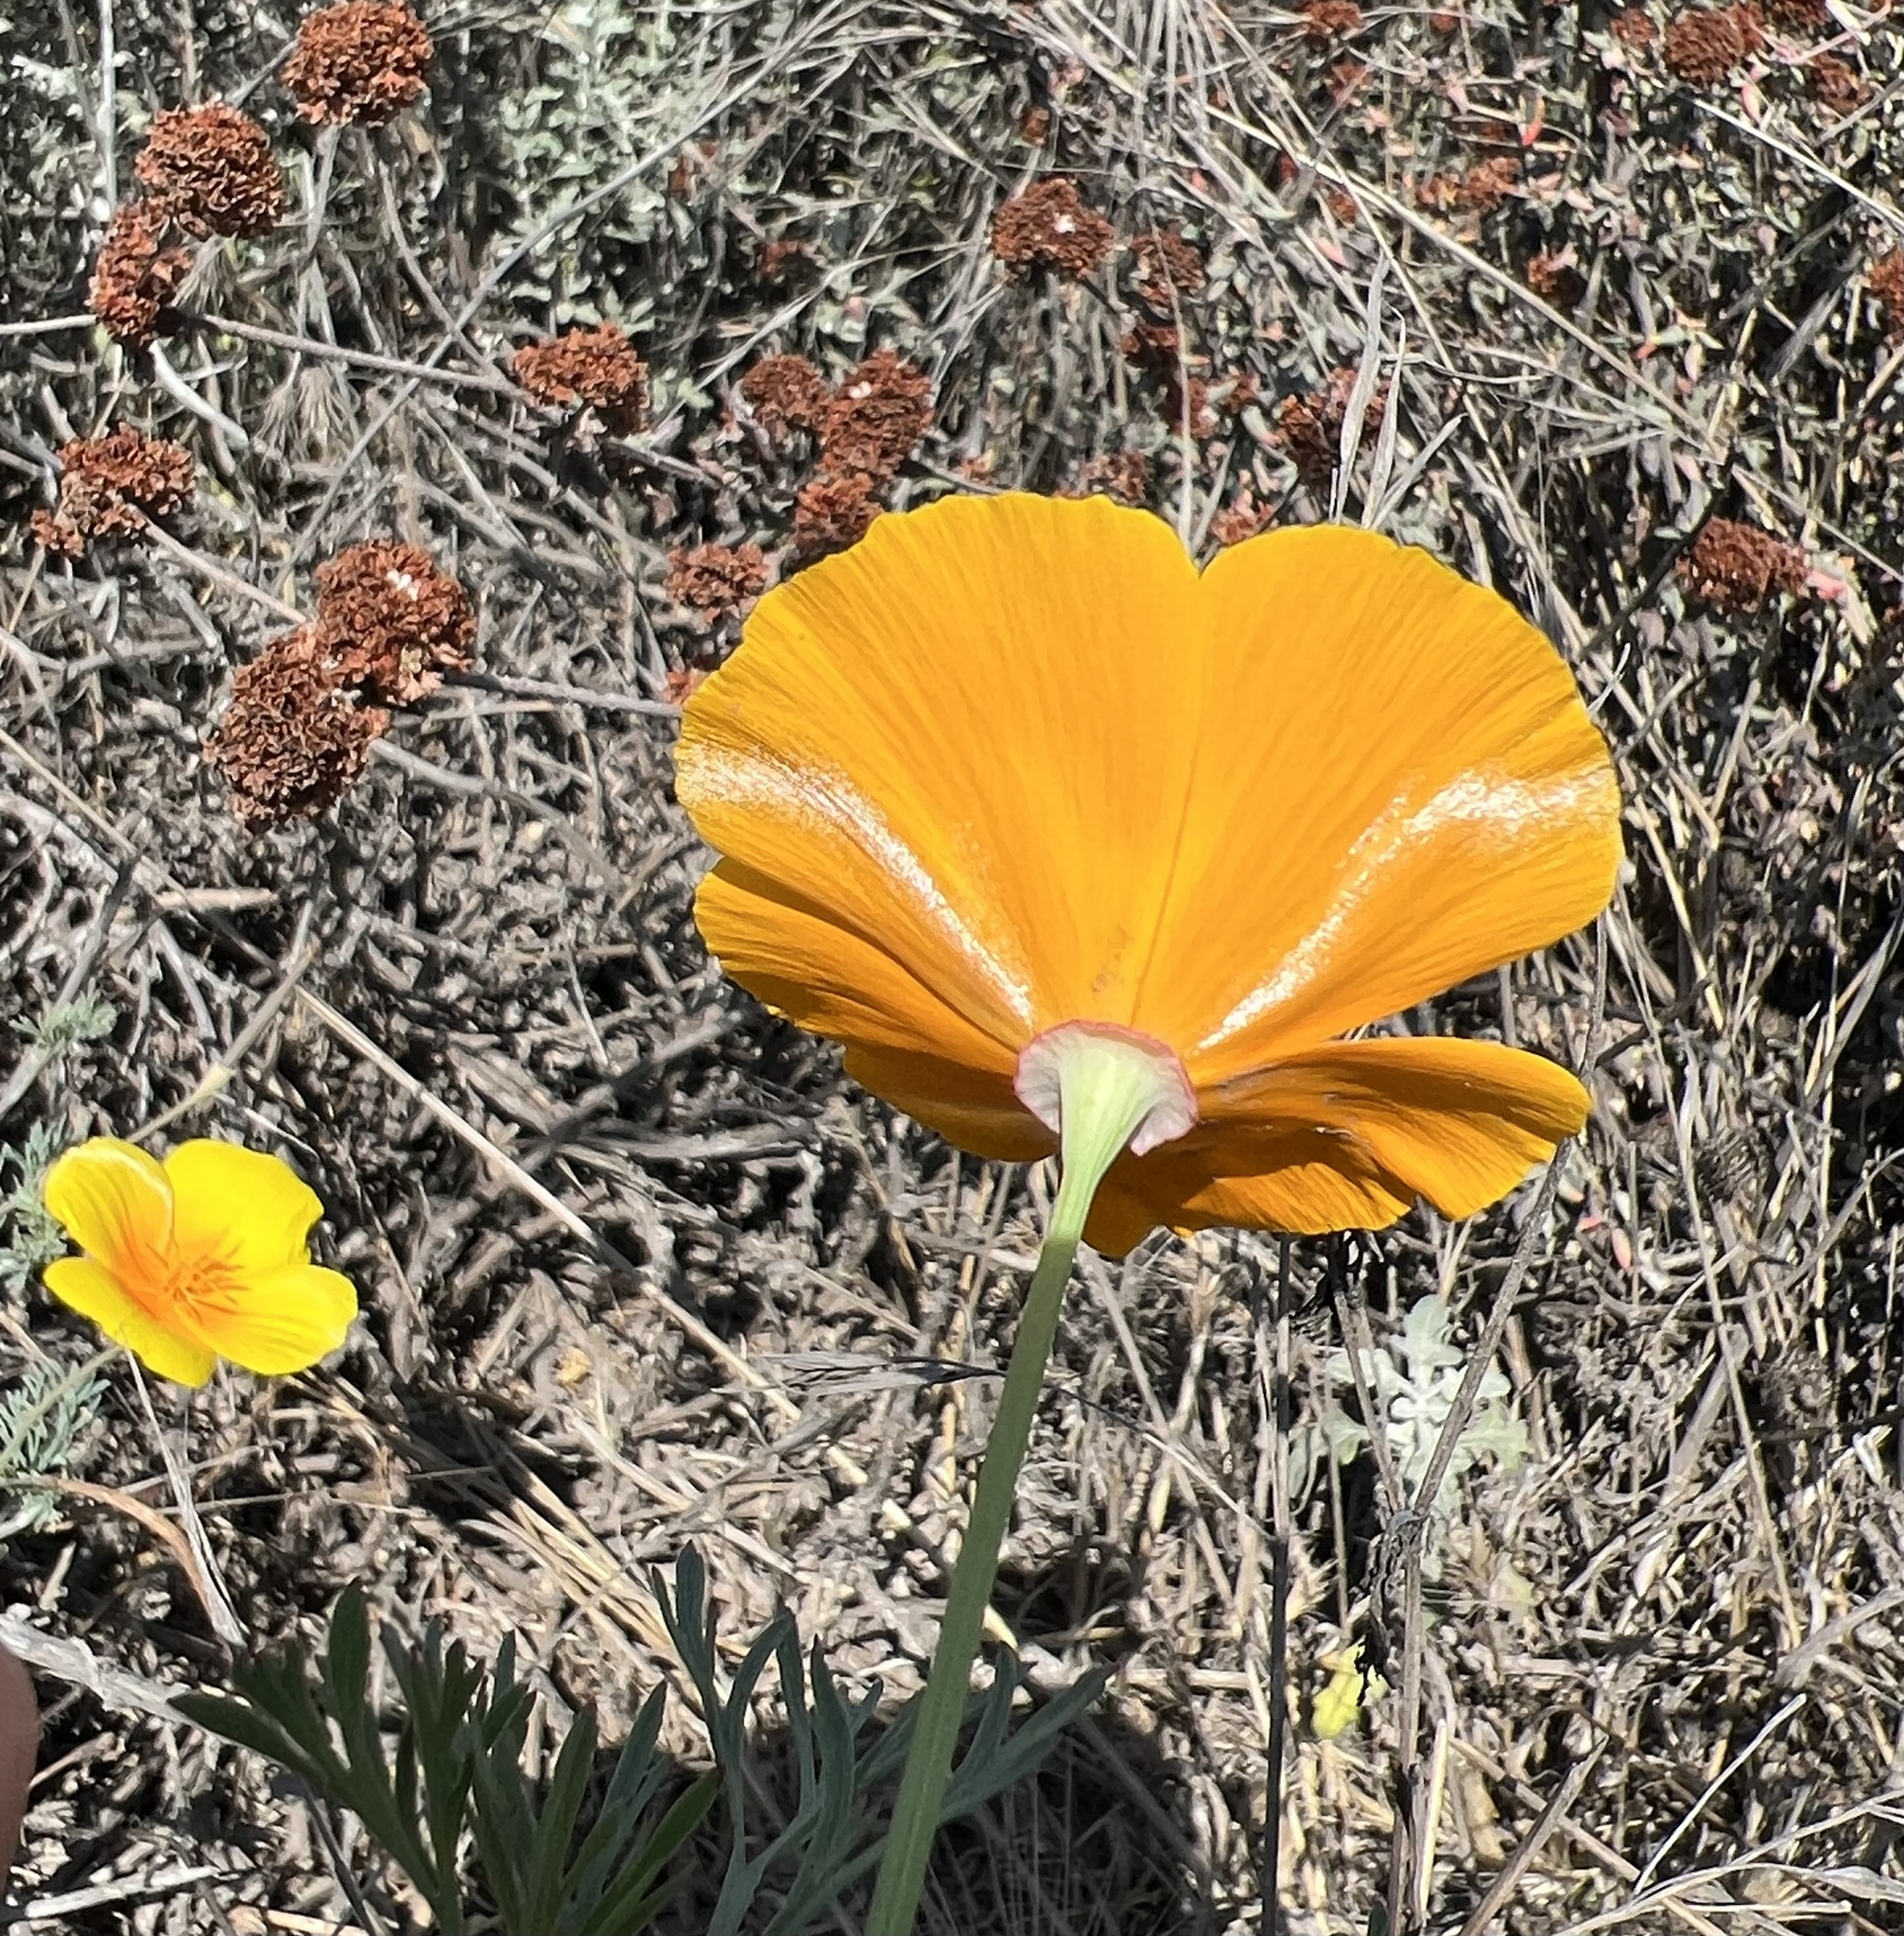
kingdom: Plantae
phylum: Tracheophyta
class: Magnoliopsida
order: Ranunculales
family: Papaveraceae
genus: Eschscholzia
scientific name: Eschscholzia californica
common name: California poppy
